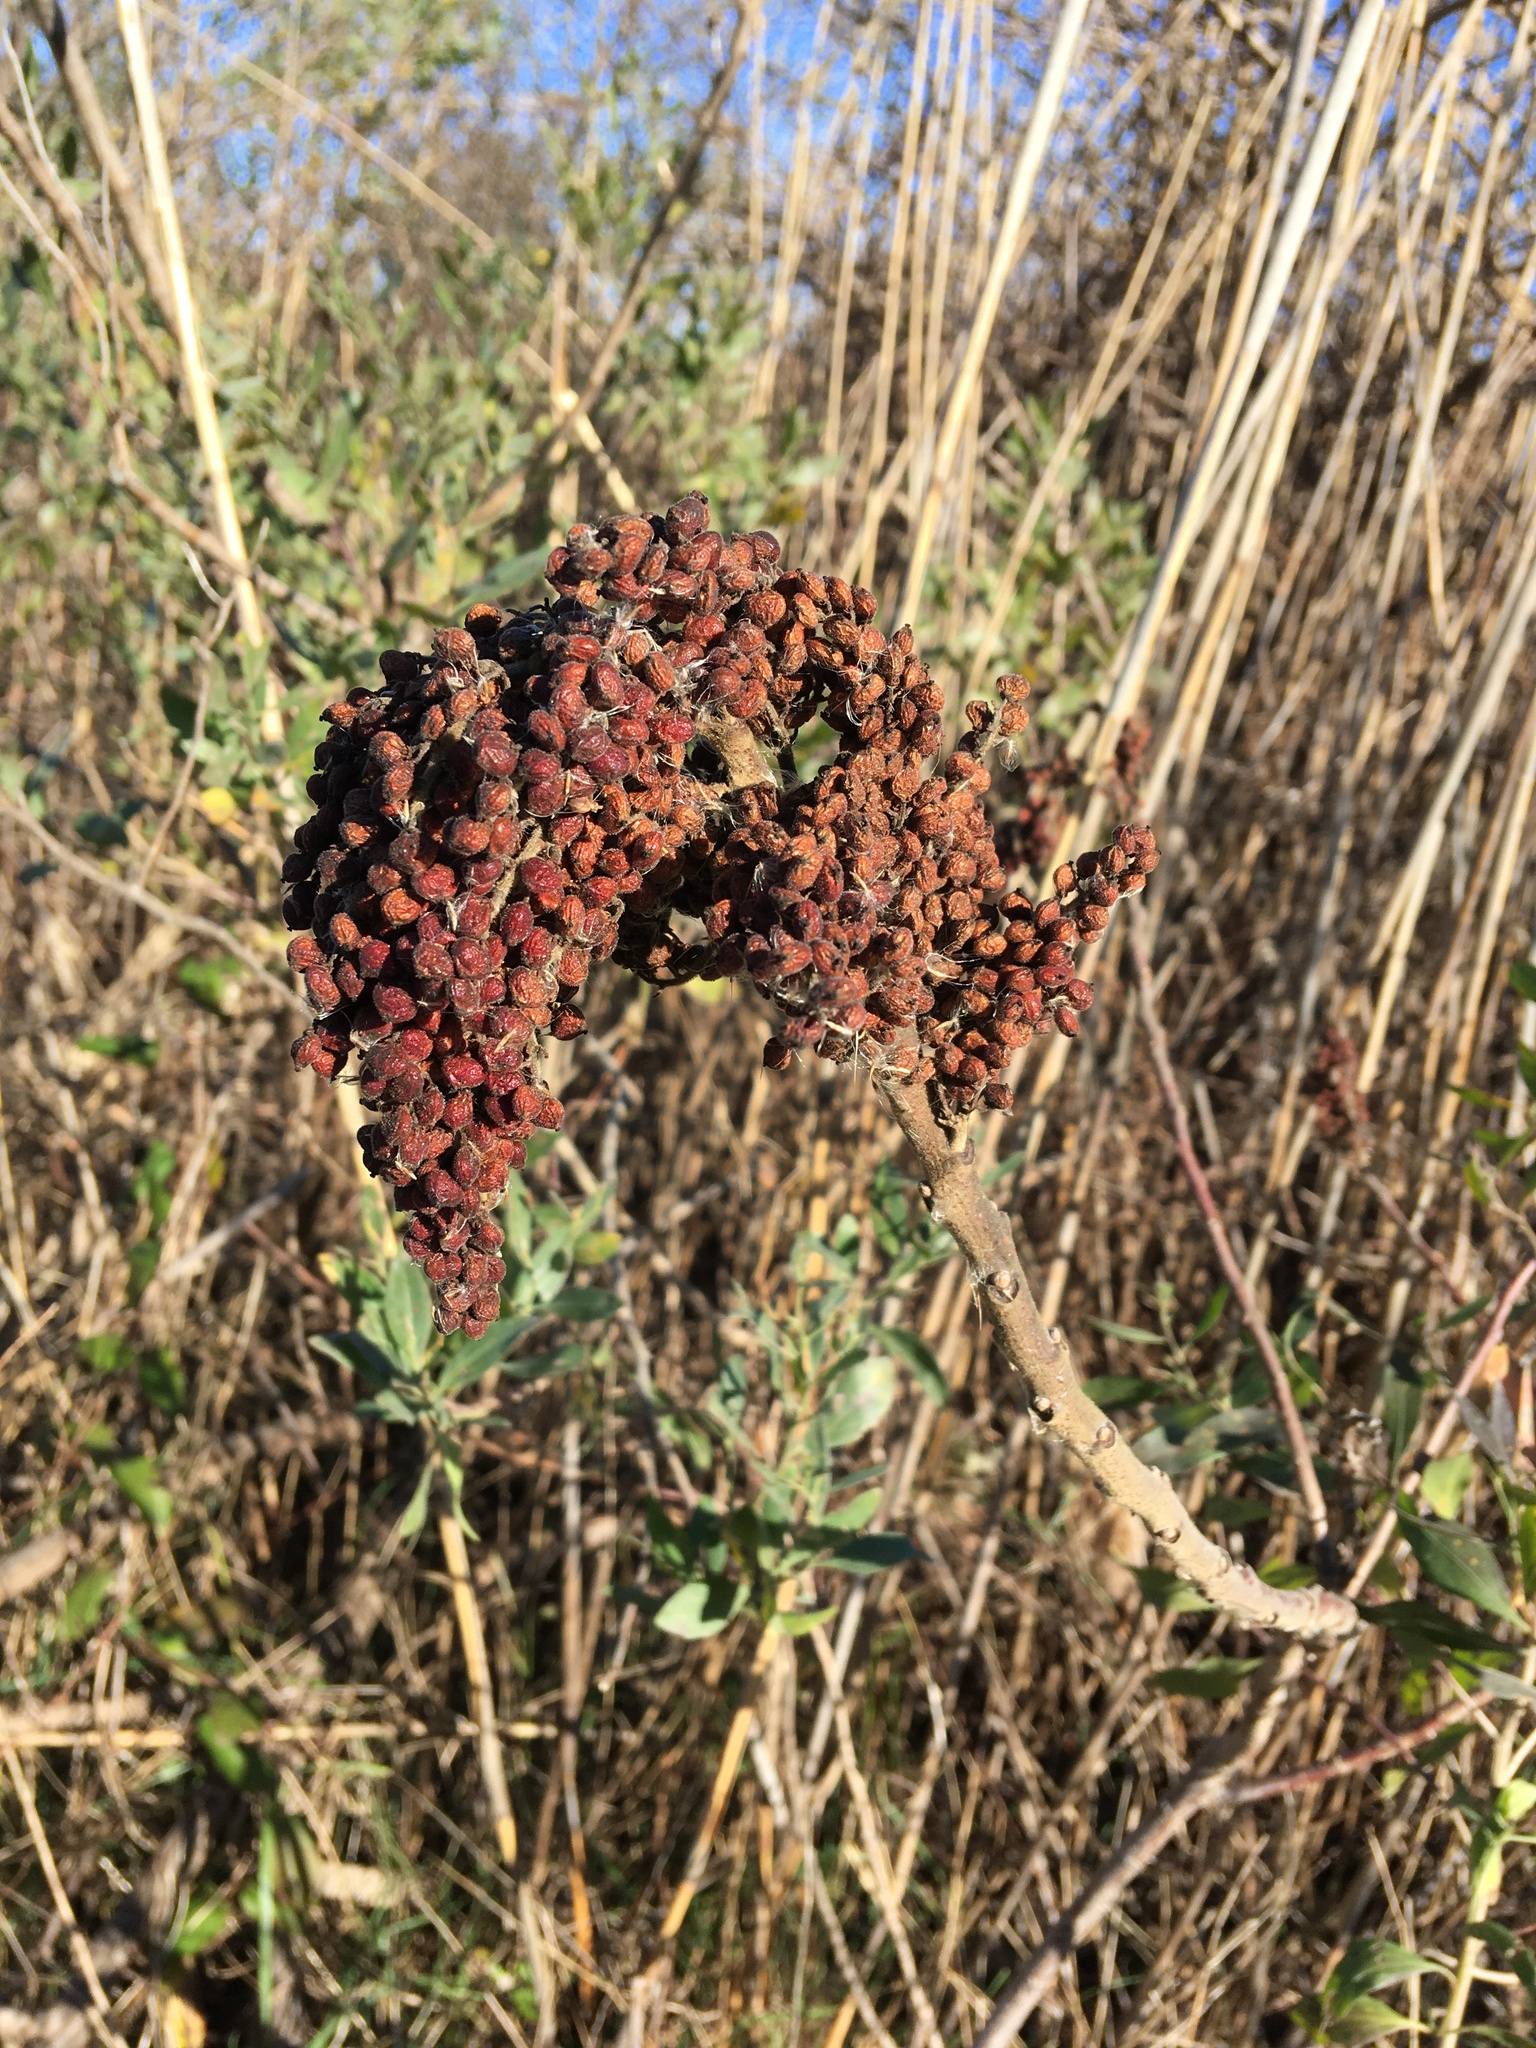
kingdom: Plantae
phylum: Tracheophyta
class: Magnoliopsida
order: Sapindales
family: Anacardiaceae
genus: Rhus
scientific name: Rhus copallina
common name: Shining sumac
